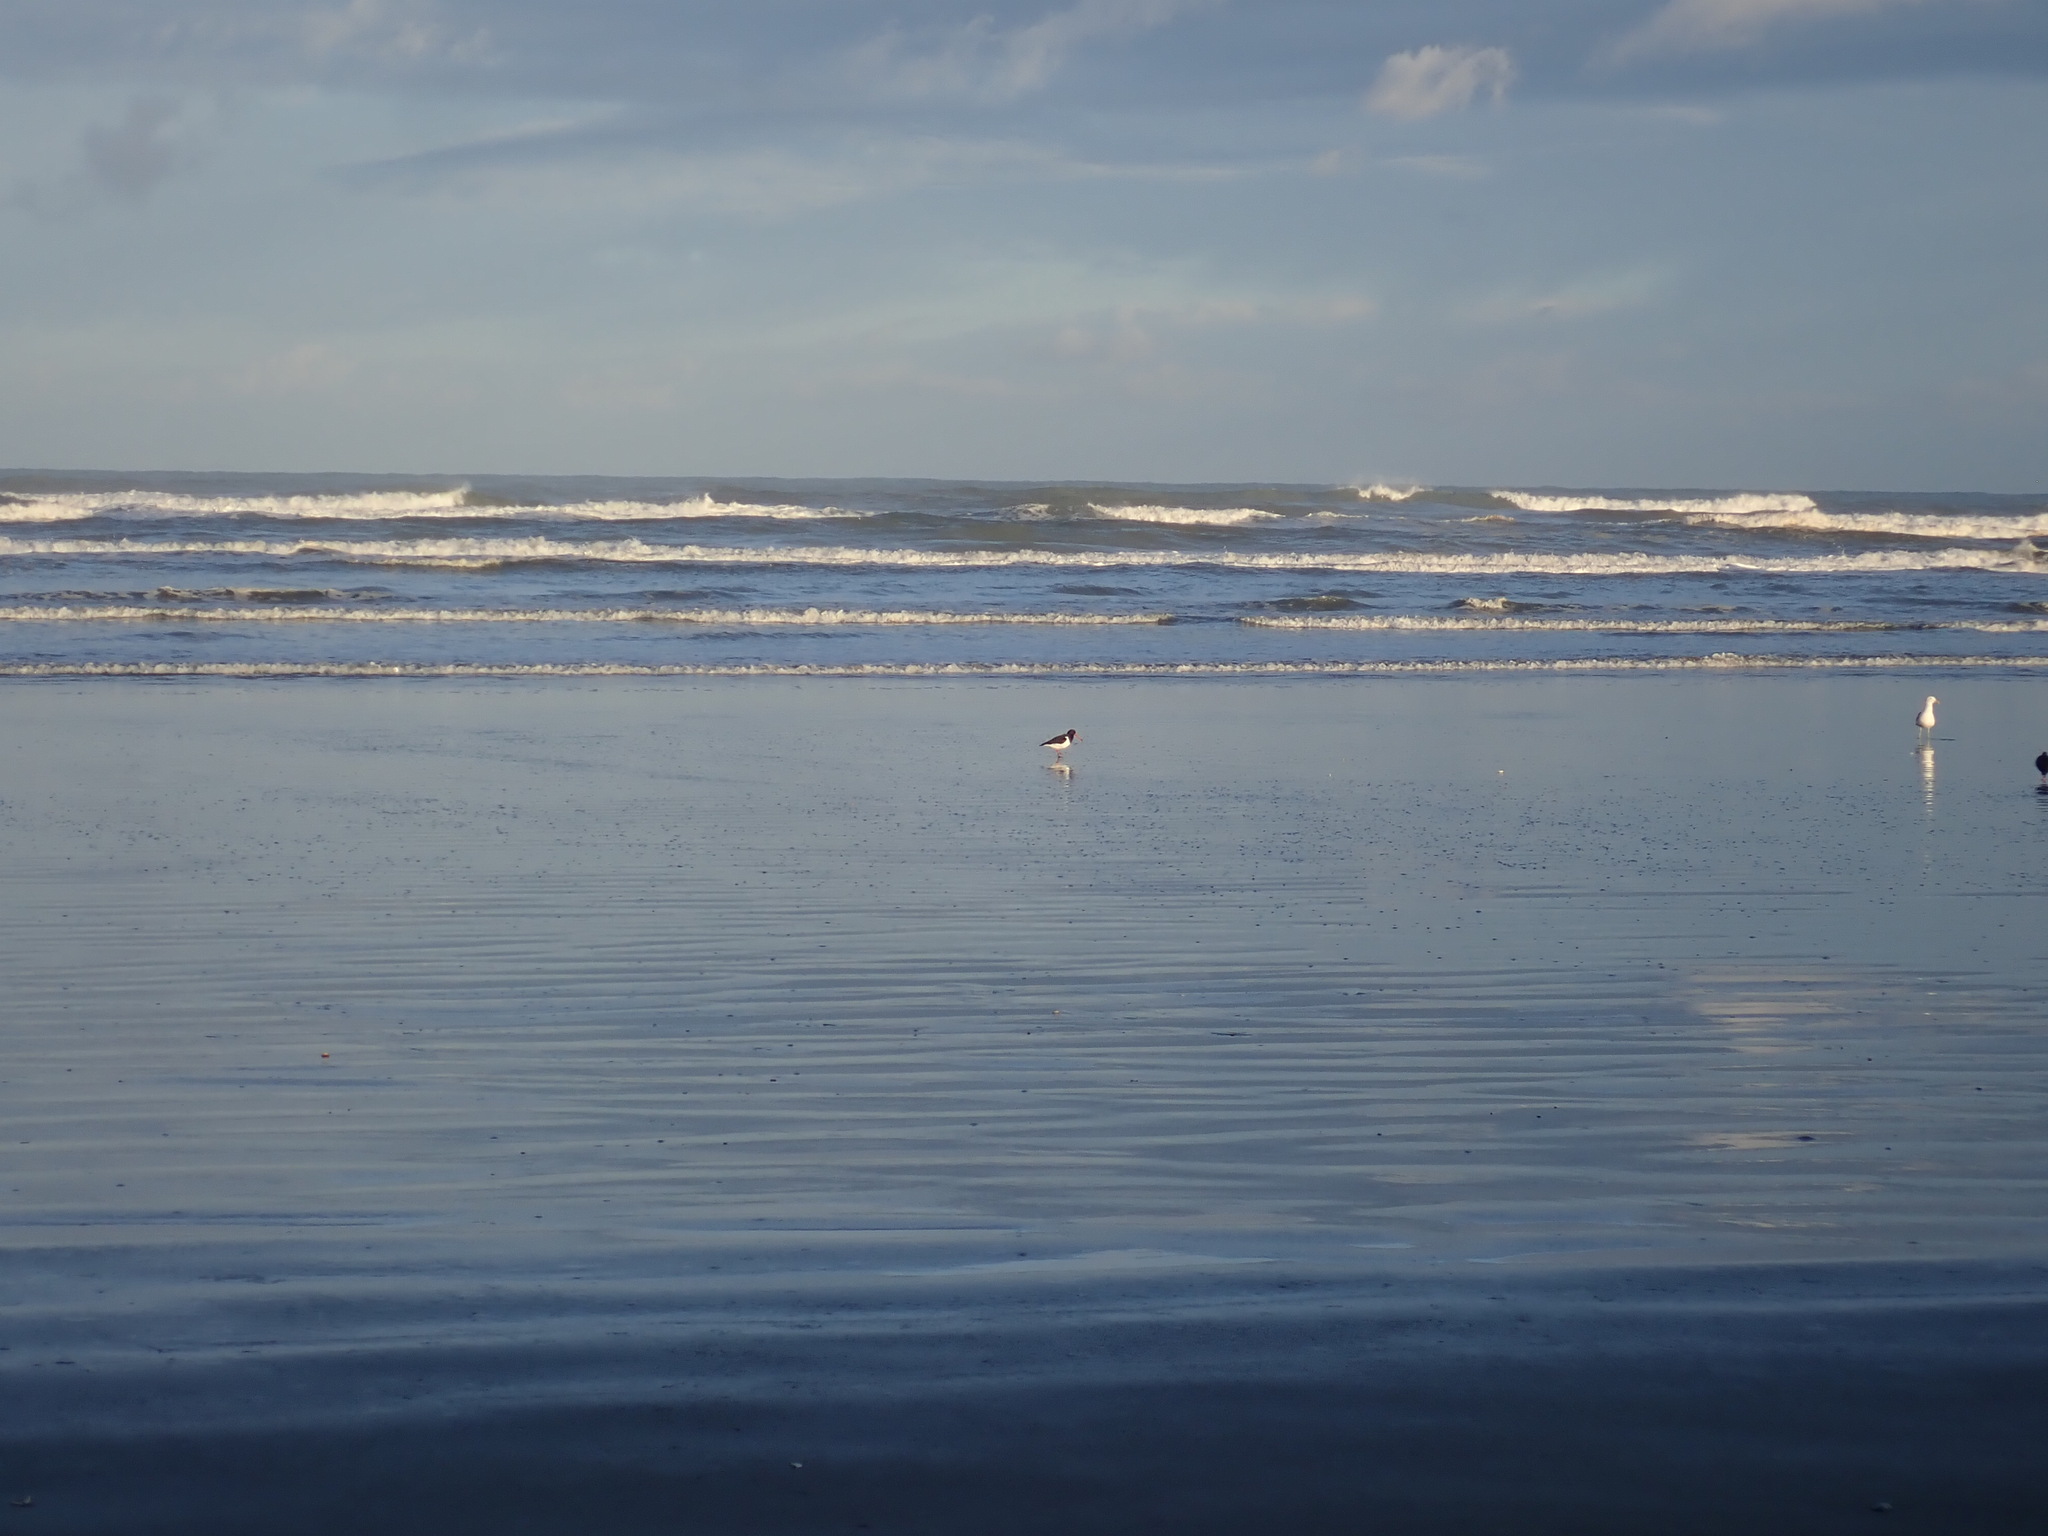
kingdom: Animalia
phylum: Chordata
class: Aves
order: Charadriiformes
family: Haematopodidae
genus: Haematopus
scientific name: Haematopus finschi
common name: South island oystercatcher
